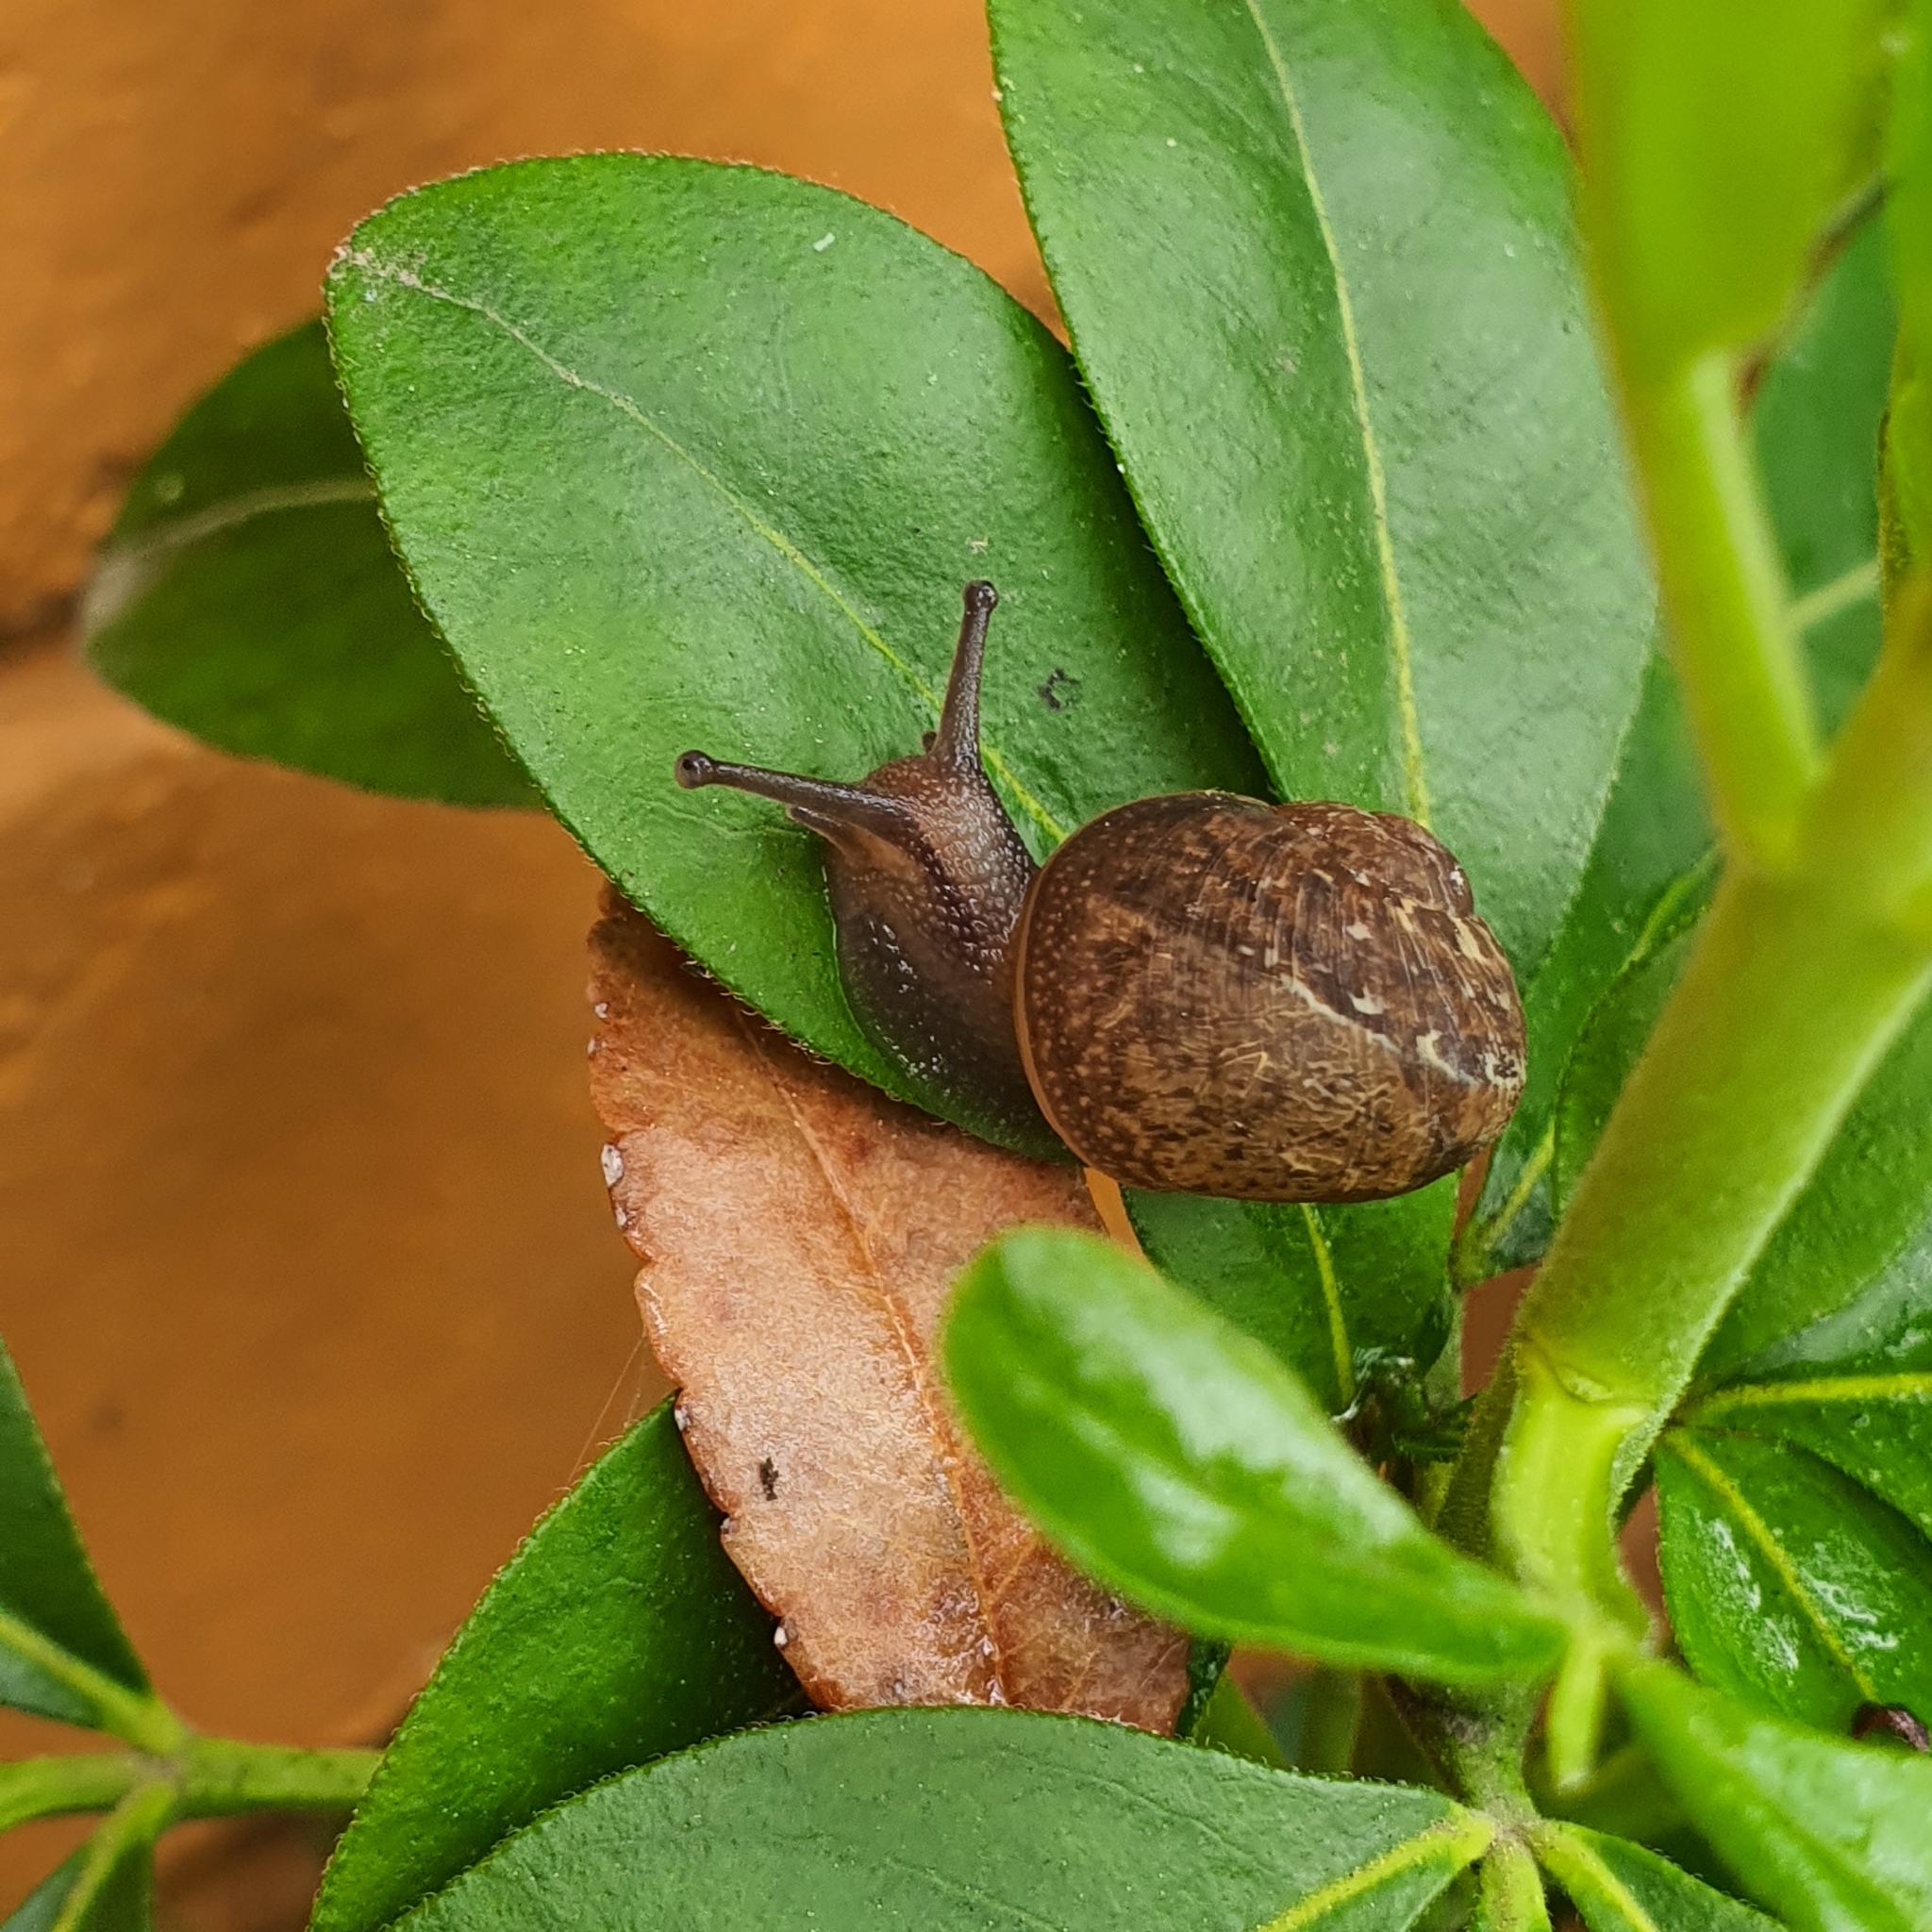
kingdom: Animalia
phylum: Mollusca
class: Gastropoda
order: Stylommatophora
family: Helicidae
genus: Cornu
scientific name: Cornu aspersum
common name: Brown garden snail
